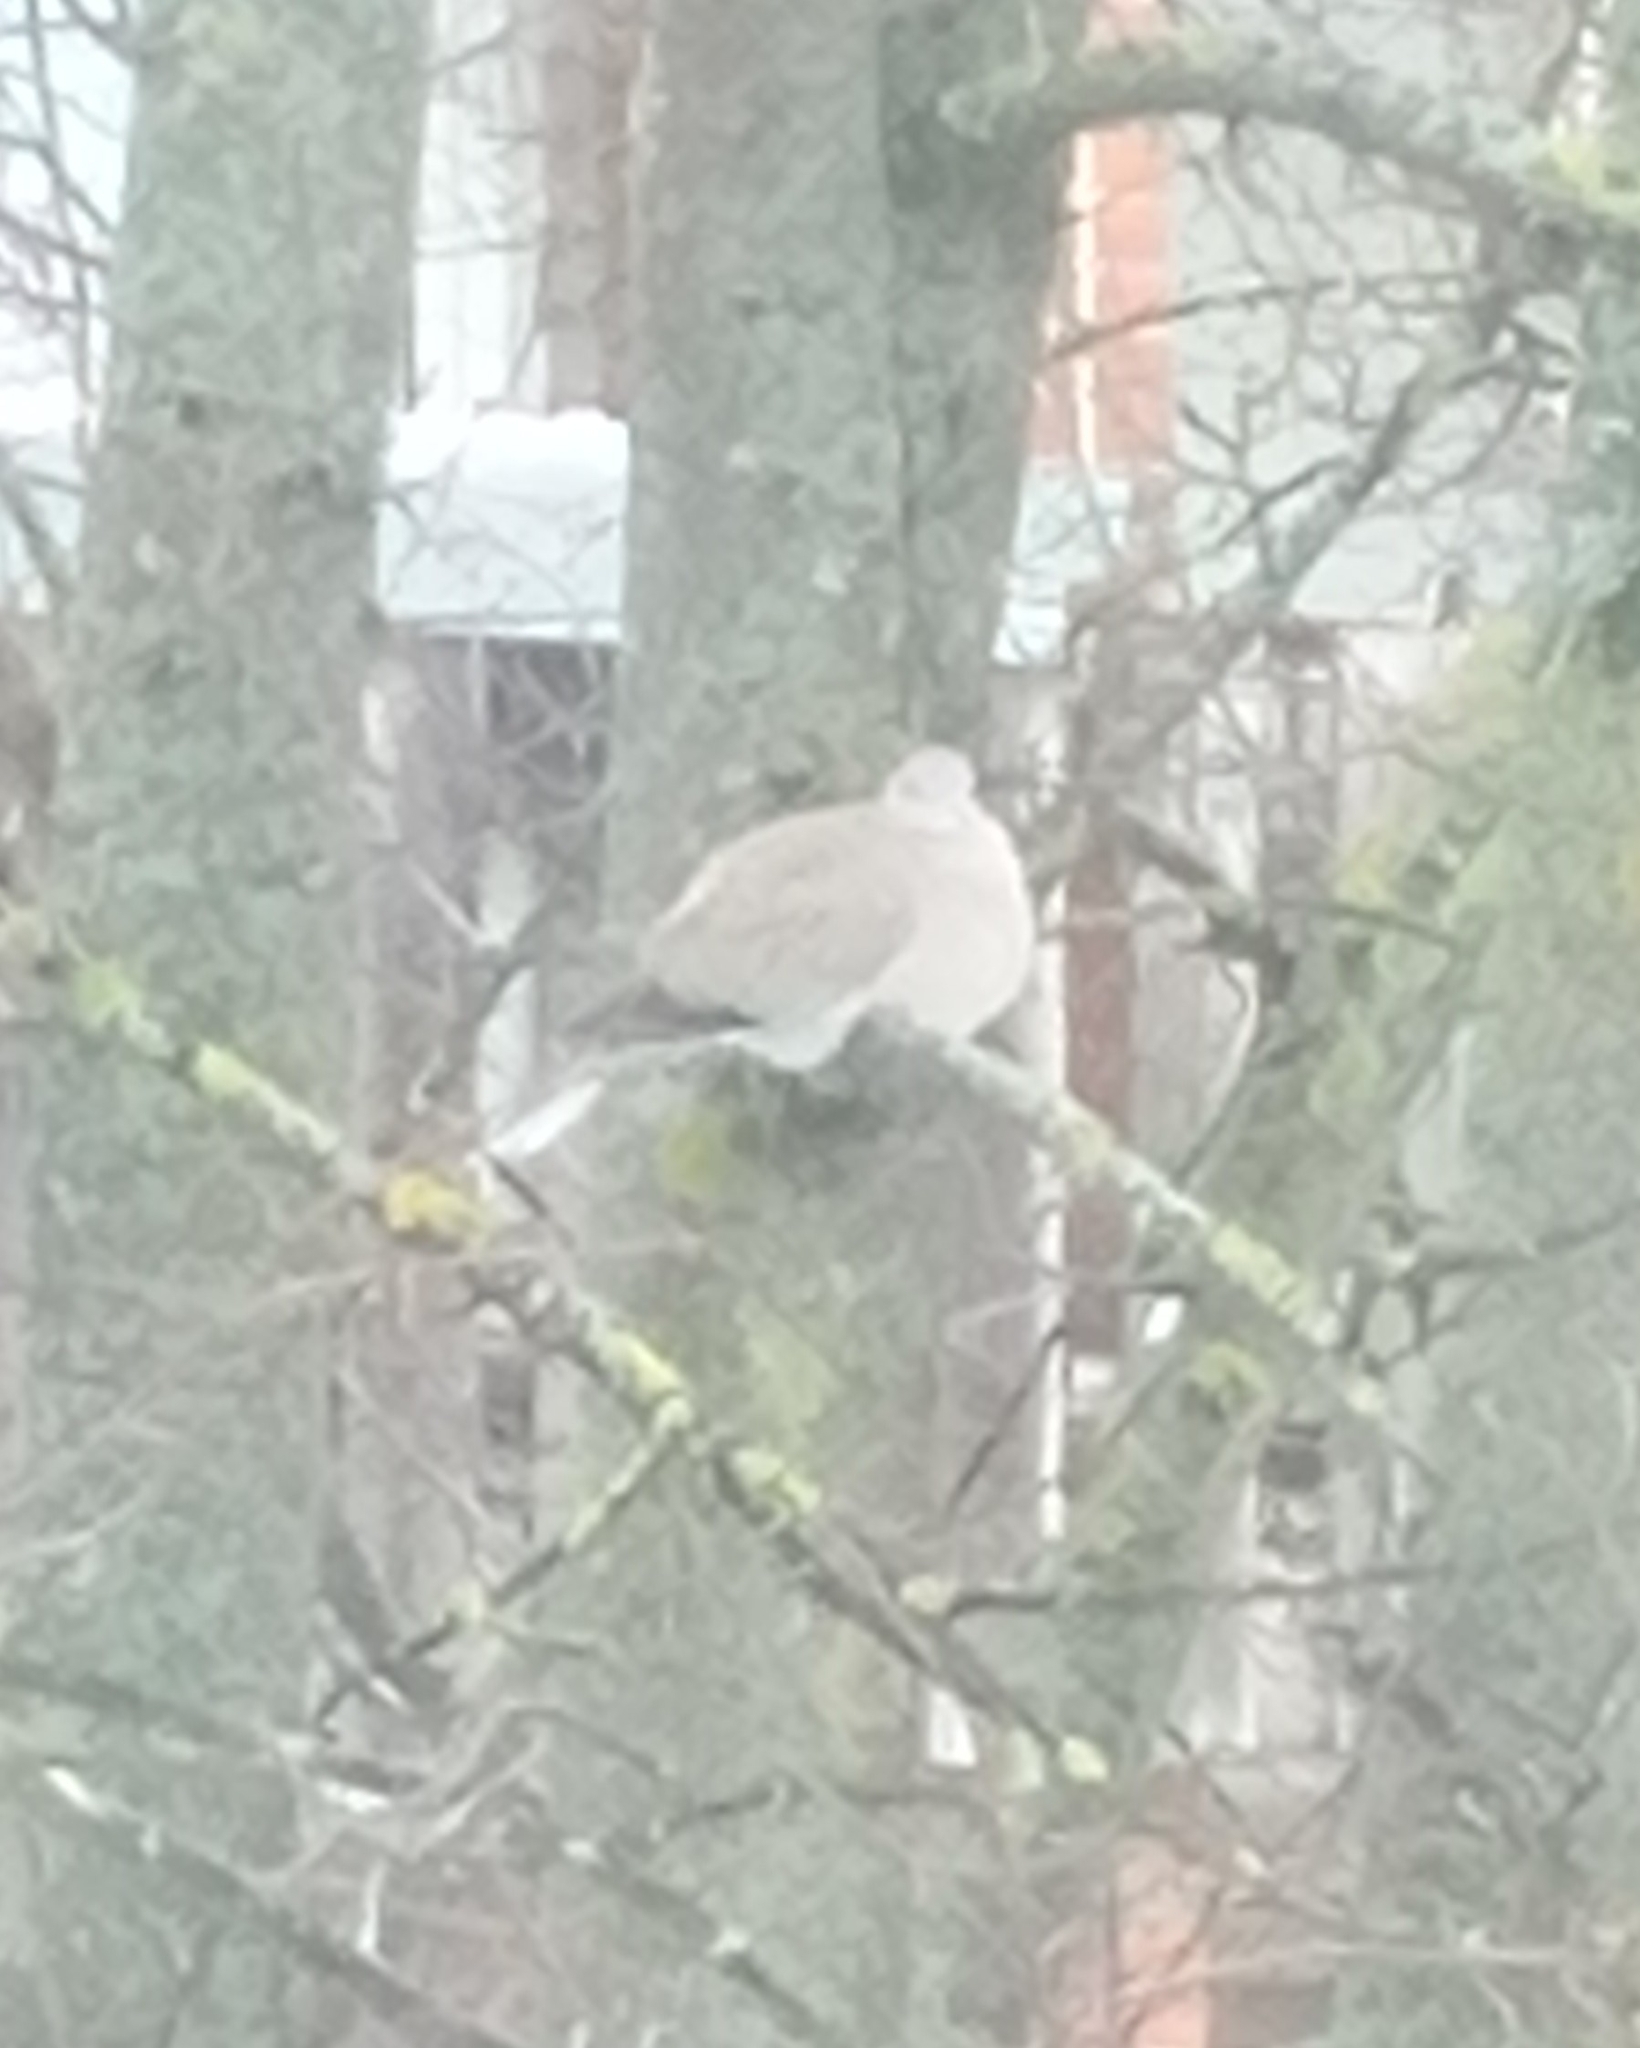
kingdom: Animalia
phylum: Chordata
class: Aves
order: Columbiformes
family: Columbidae
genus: Streptopelia
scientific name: Streptopelia decaocto
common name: Eurasian collared dove
